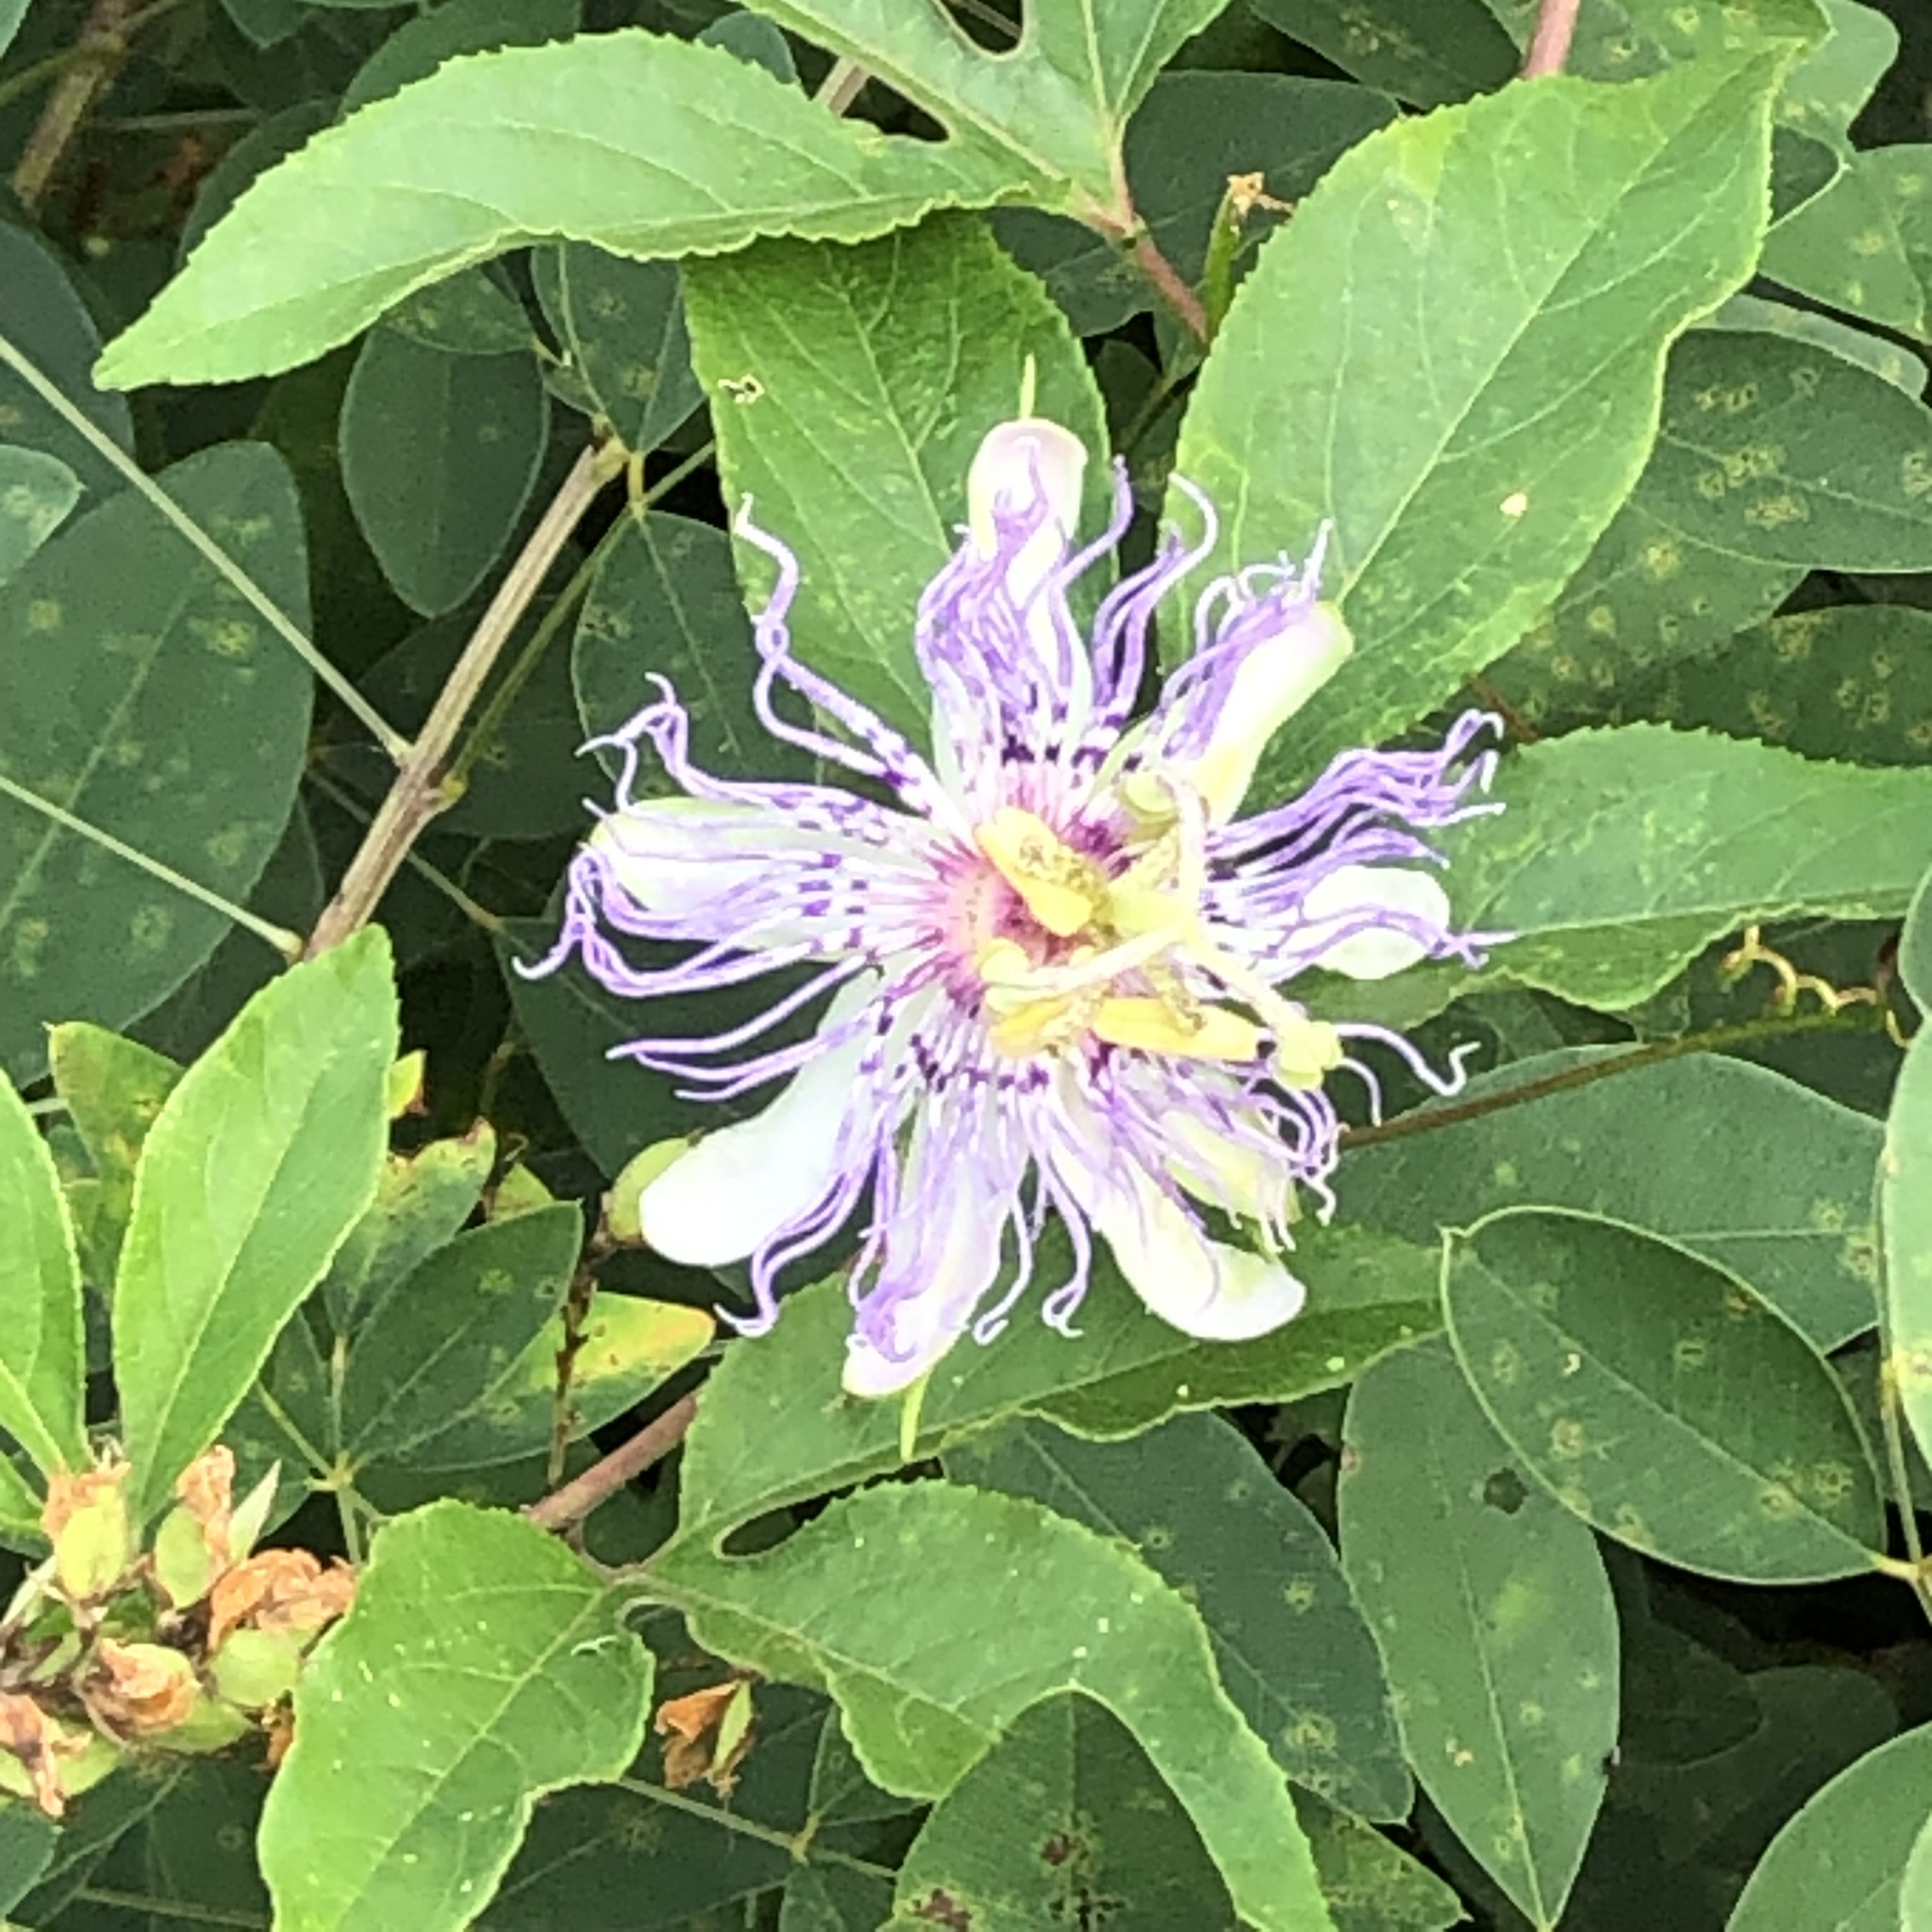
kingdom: Plantae
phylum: Tracheophyta
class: Magnoliopsida
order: Malpighiales
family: Passifloraceae
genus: Passiflora
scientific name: Passiflora incarnata
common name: Apricot-vine
